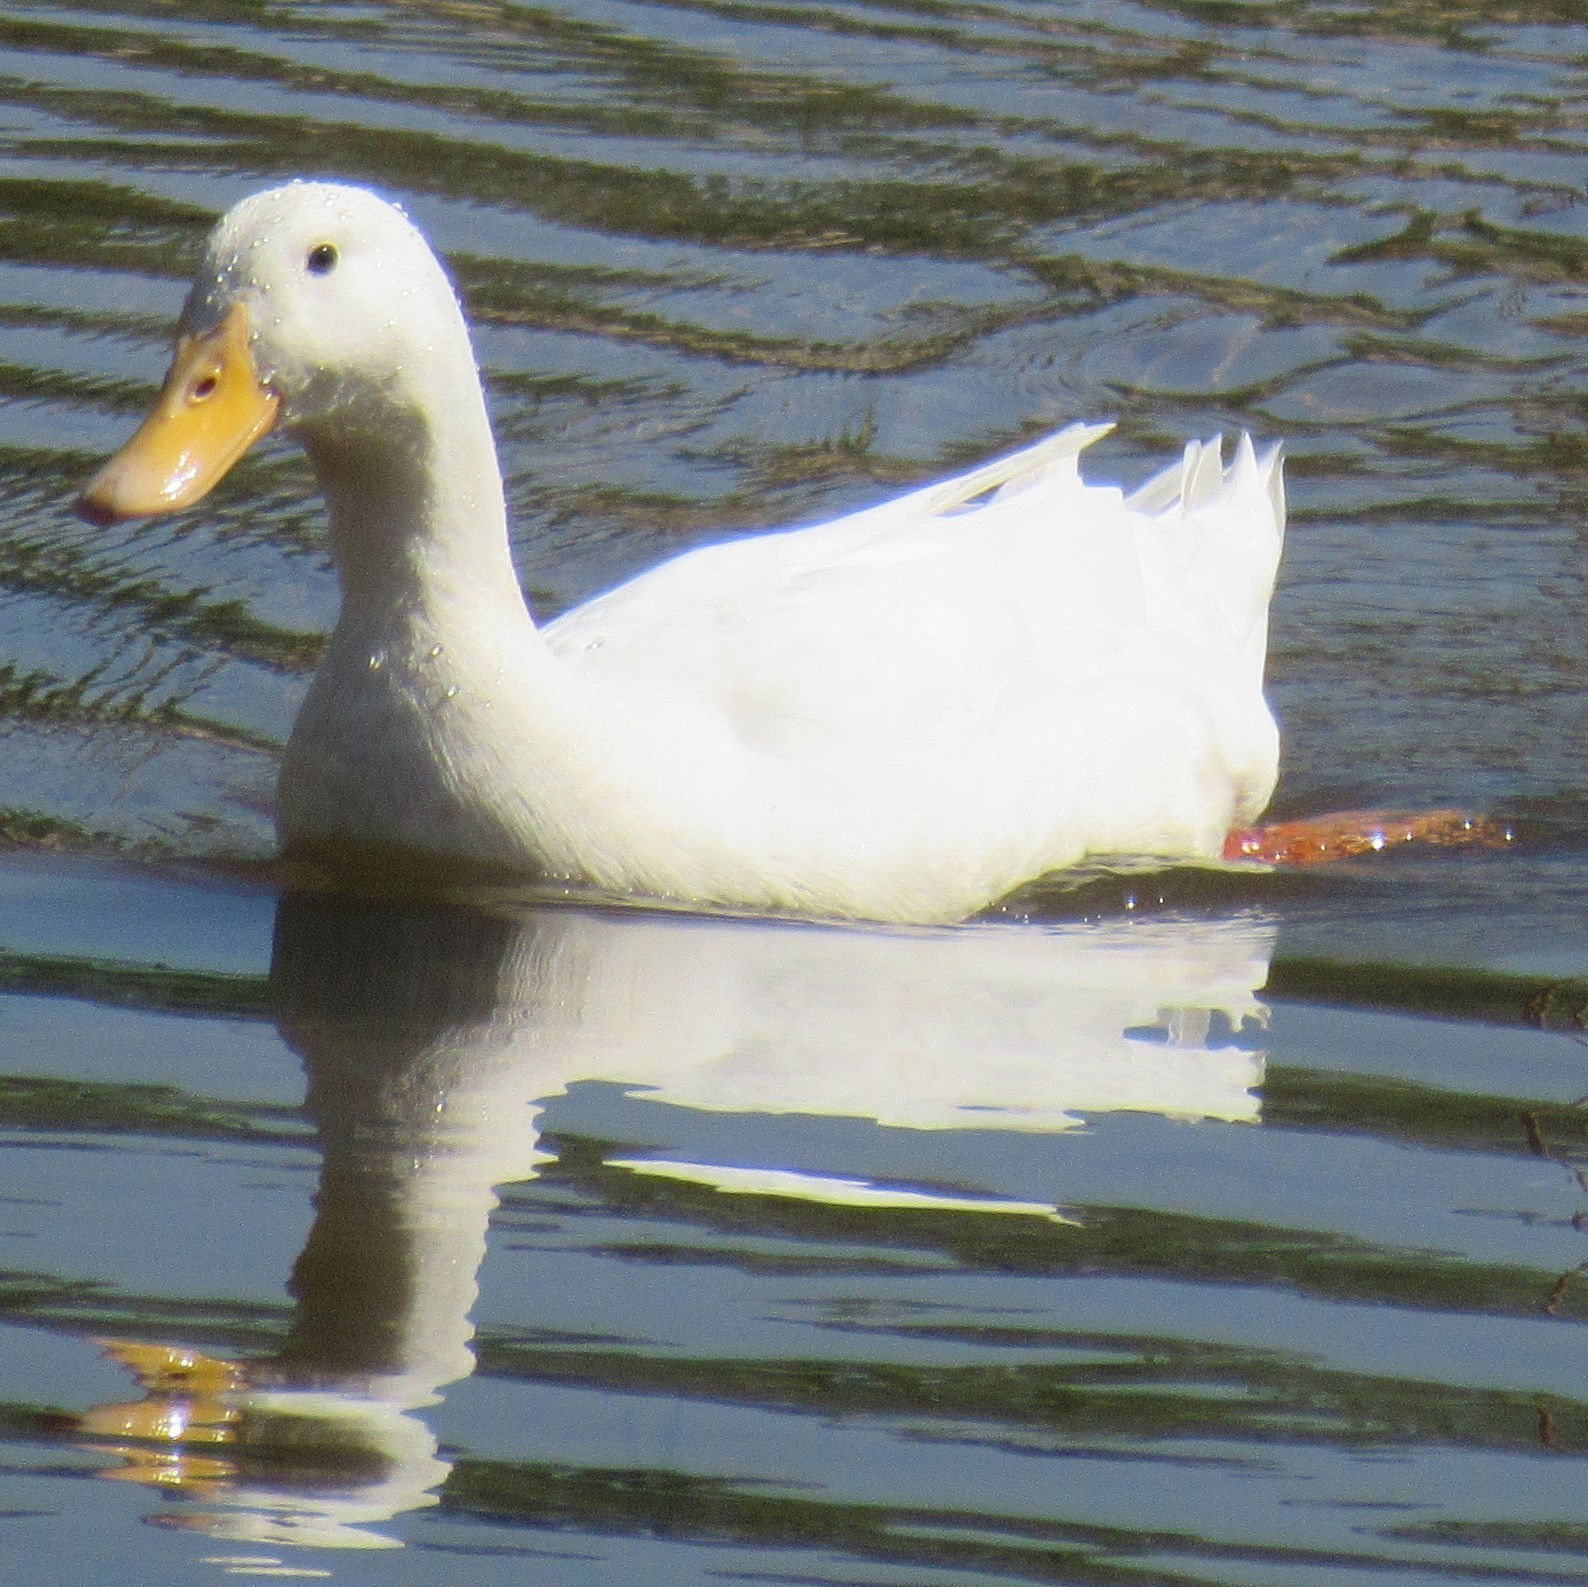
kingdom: Animalia
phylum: Chordata
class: Aves
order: Anseriformes
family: Anatidae
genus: Anas
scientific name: Anas platyrhynchos
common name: Mallard
